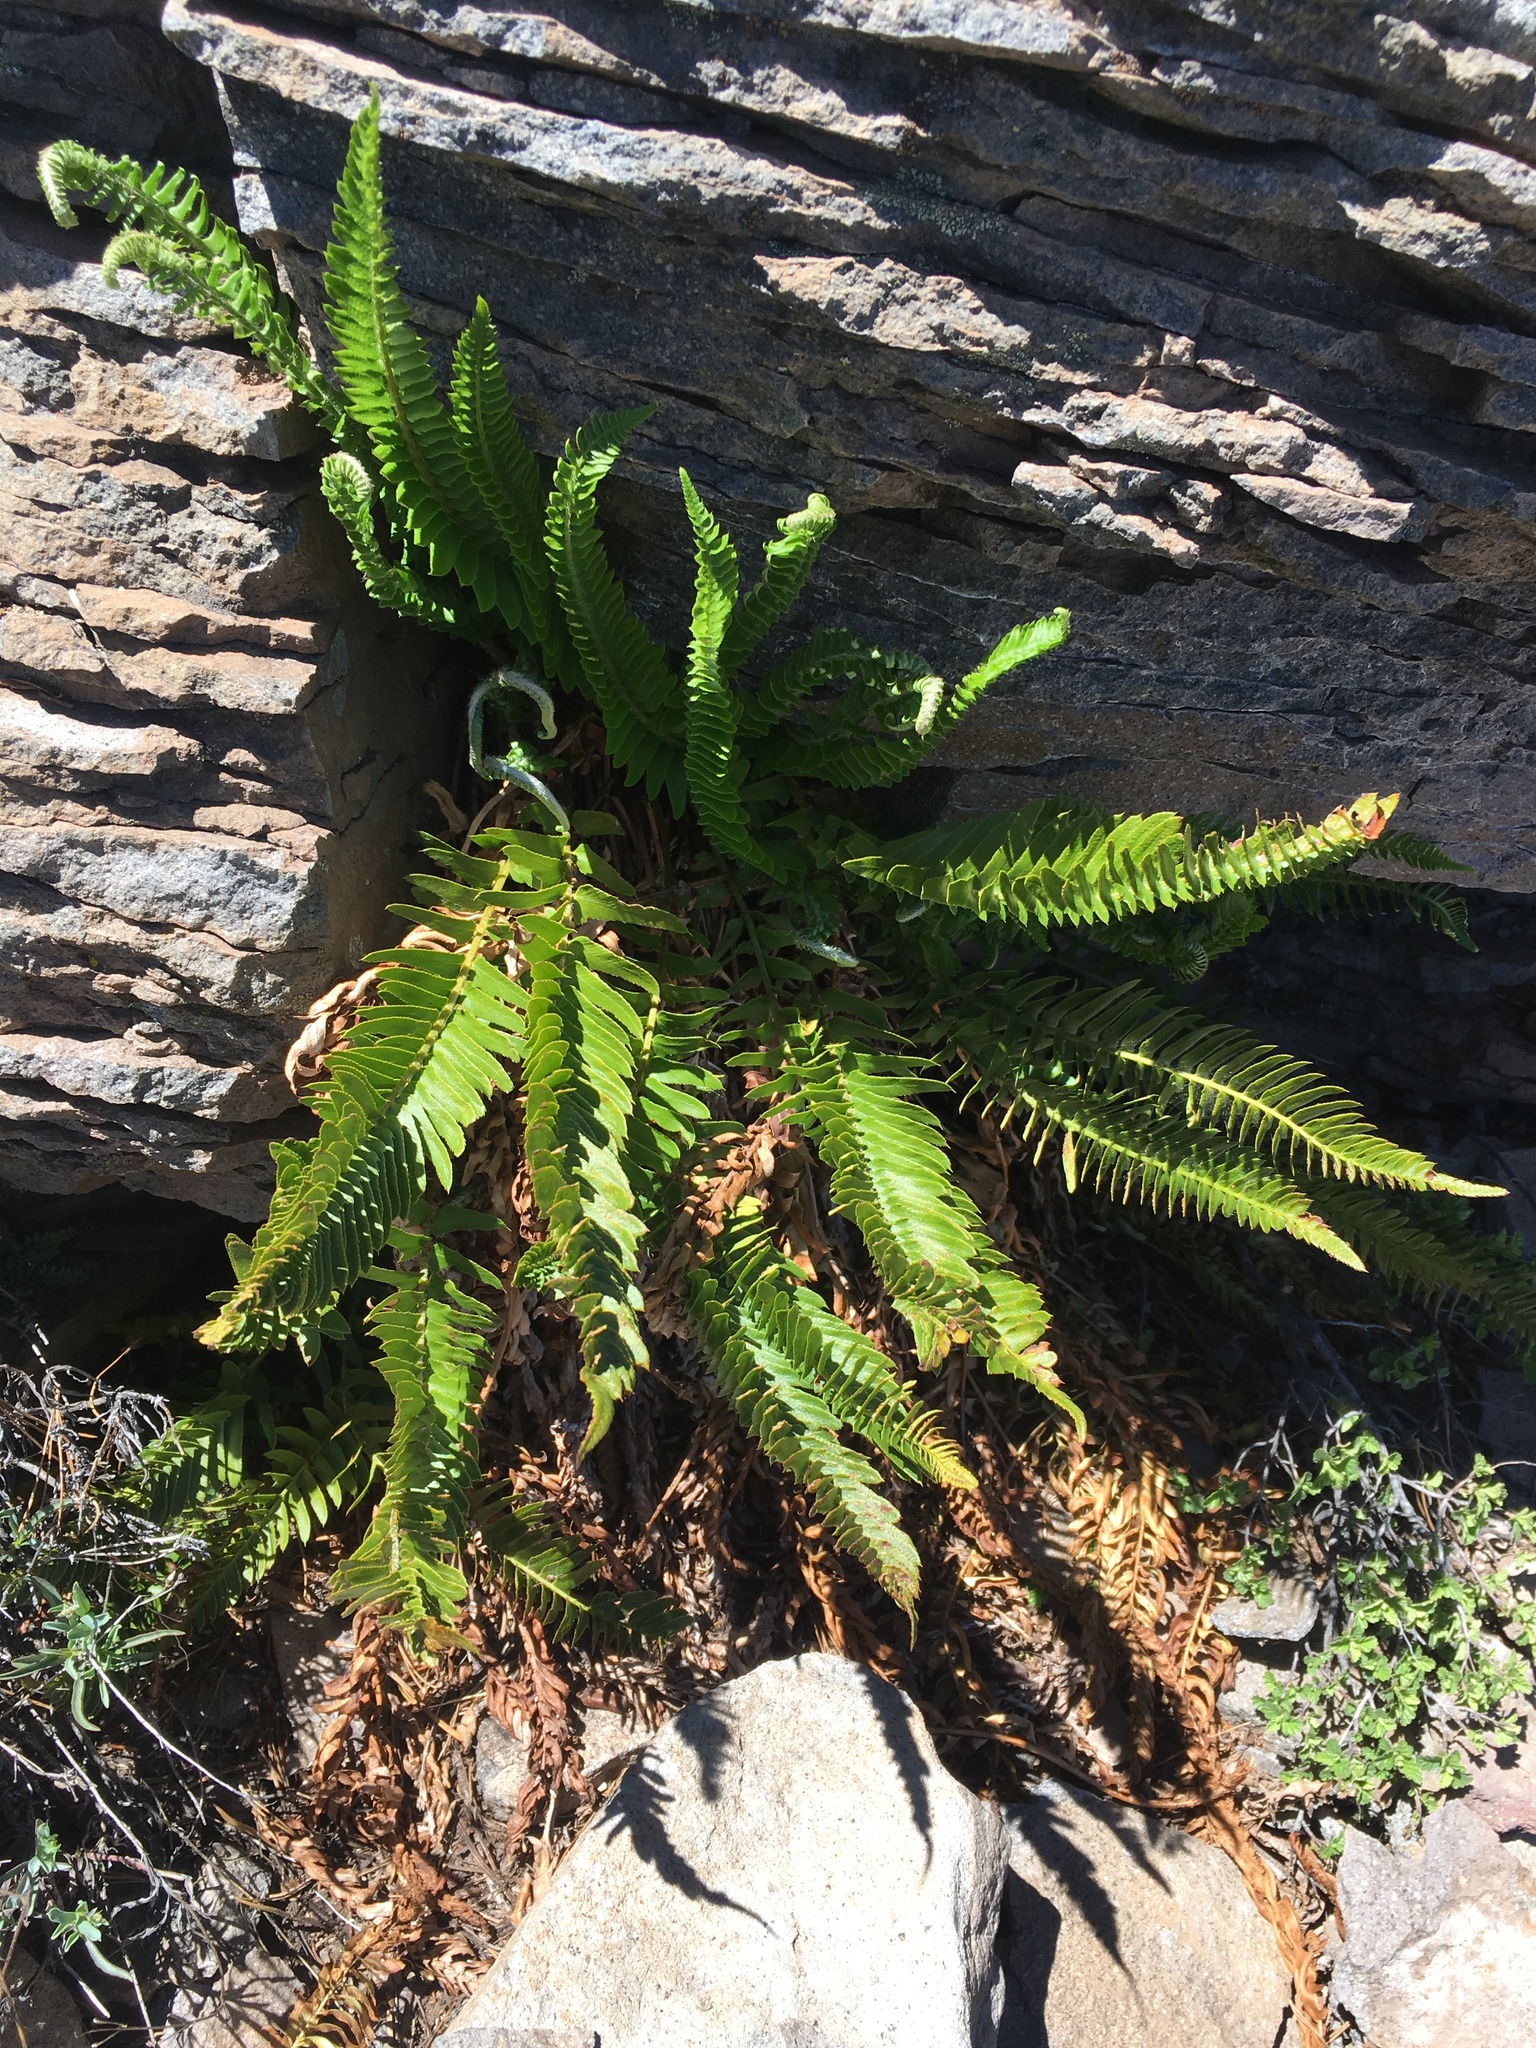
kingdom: Plantae
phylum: Tracheophyta
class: Polypodiopsida
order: Polypodiales
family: Dryopteridaceae
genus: Polystichum
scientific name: Polystichum imbricans
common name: Dwarf western sword fern
